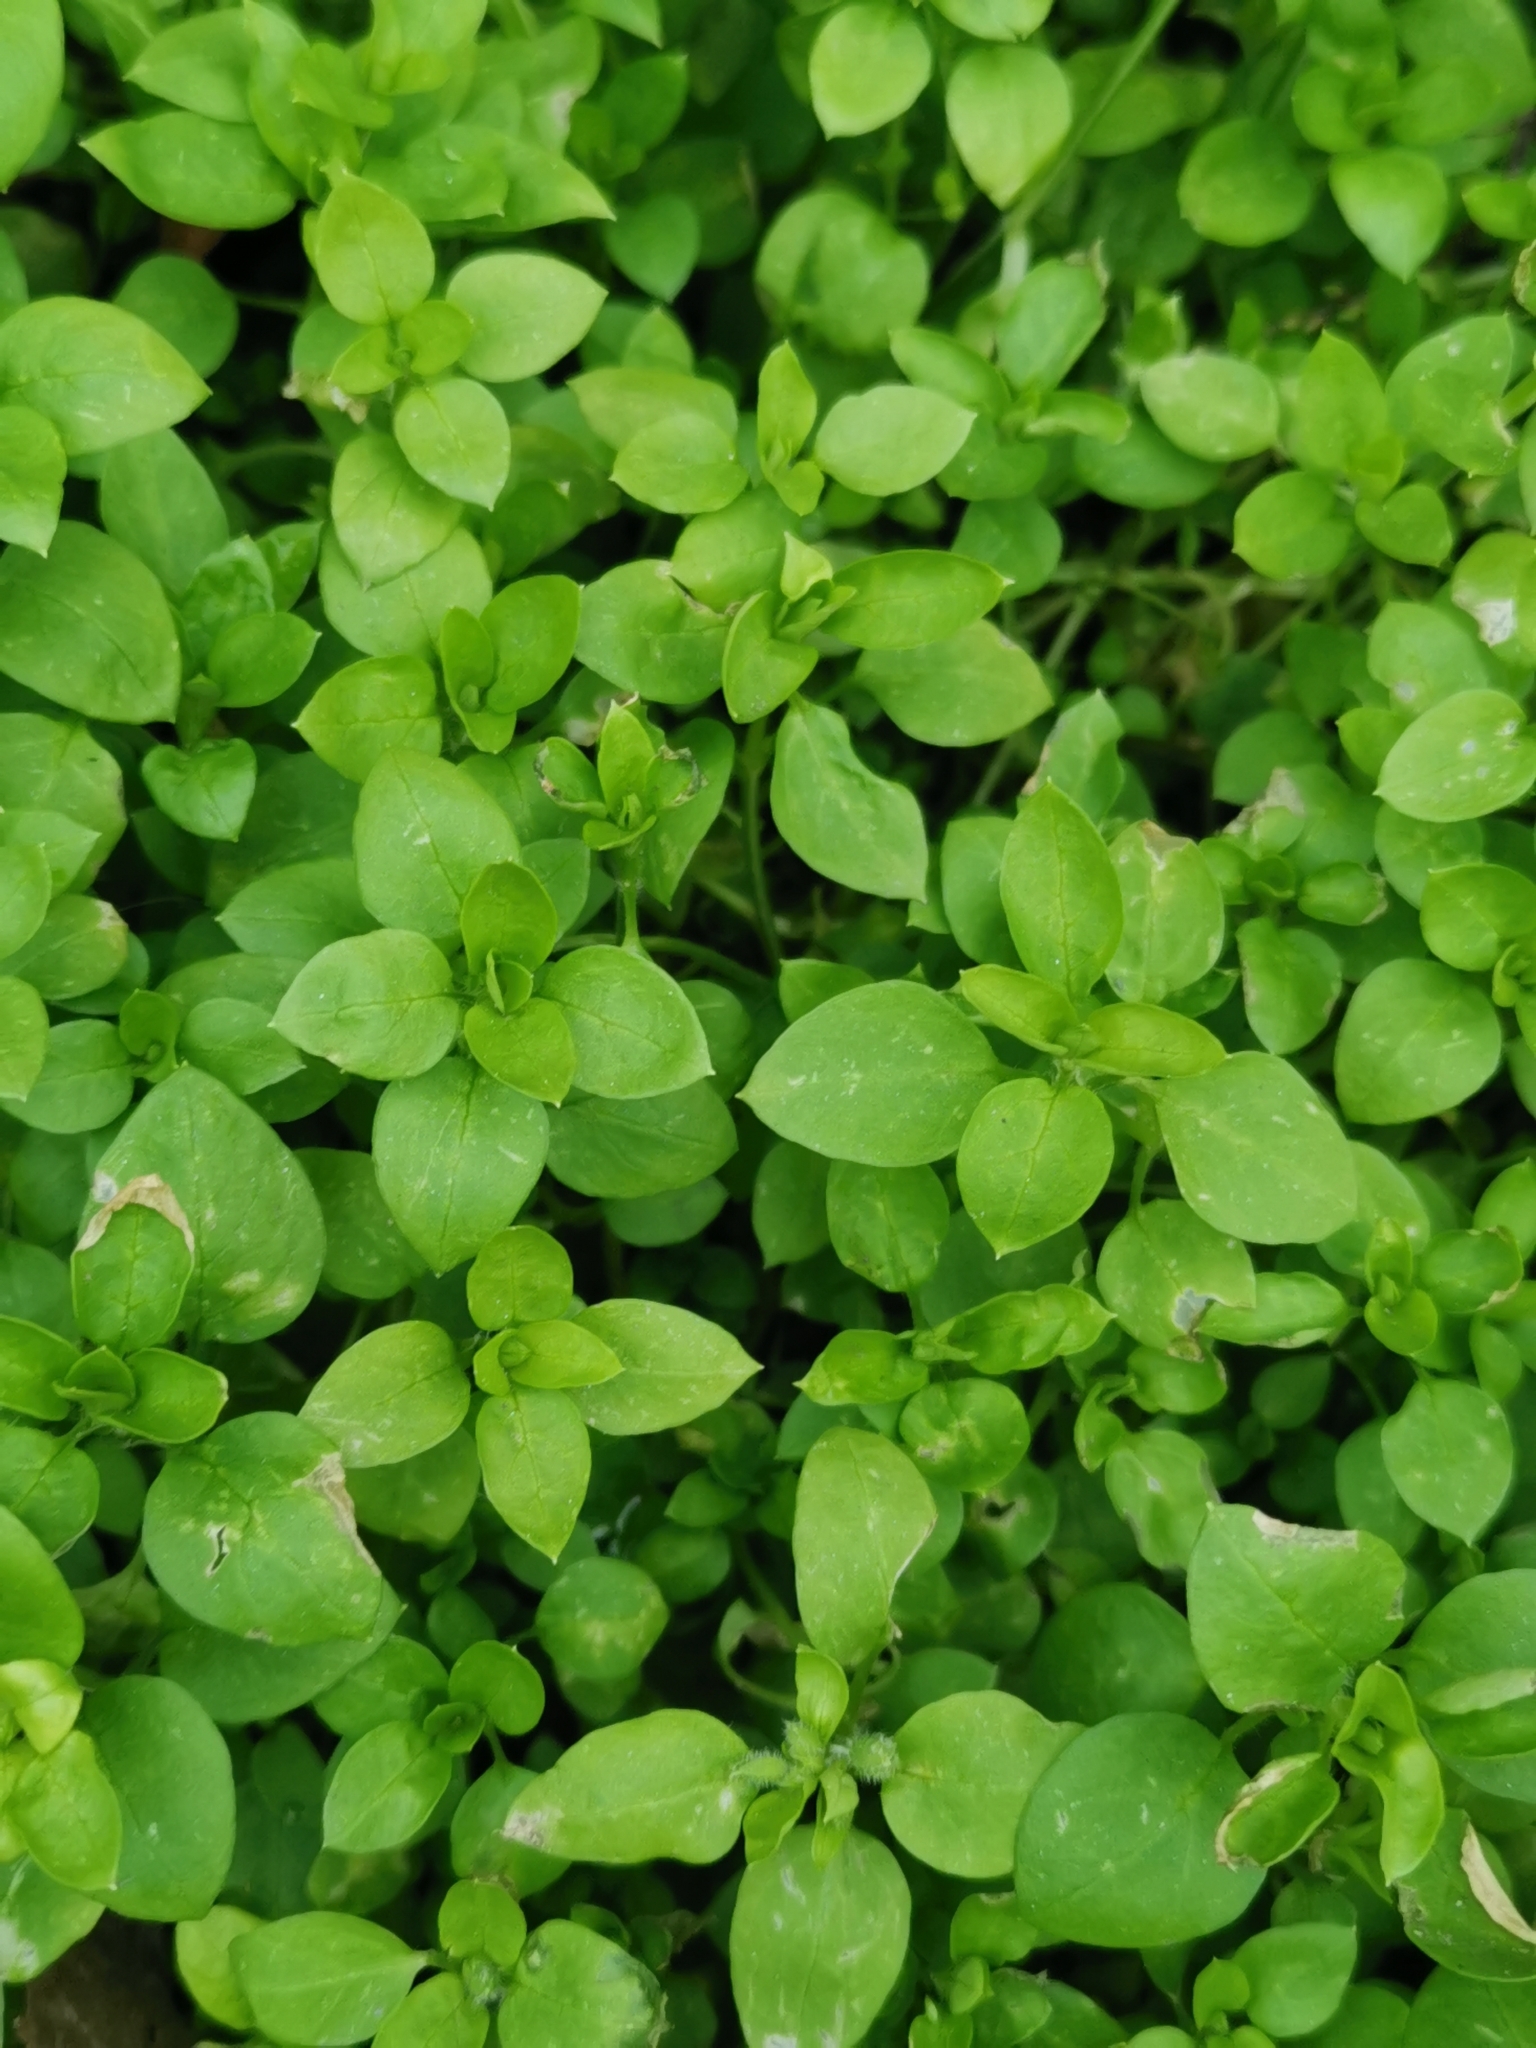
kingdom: Plantae
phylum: Tracheophyta
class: Magnoliopsida
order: Caryophyllales
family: Caryophyllaceae
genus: Stellaria
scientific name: Stellaria media
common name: Common chickweed
